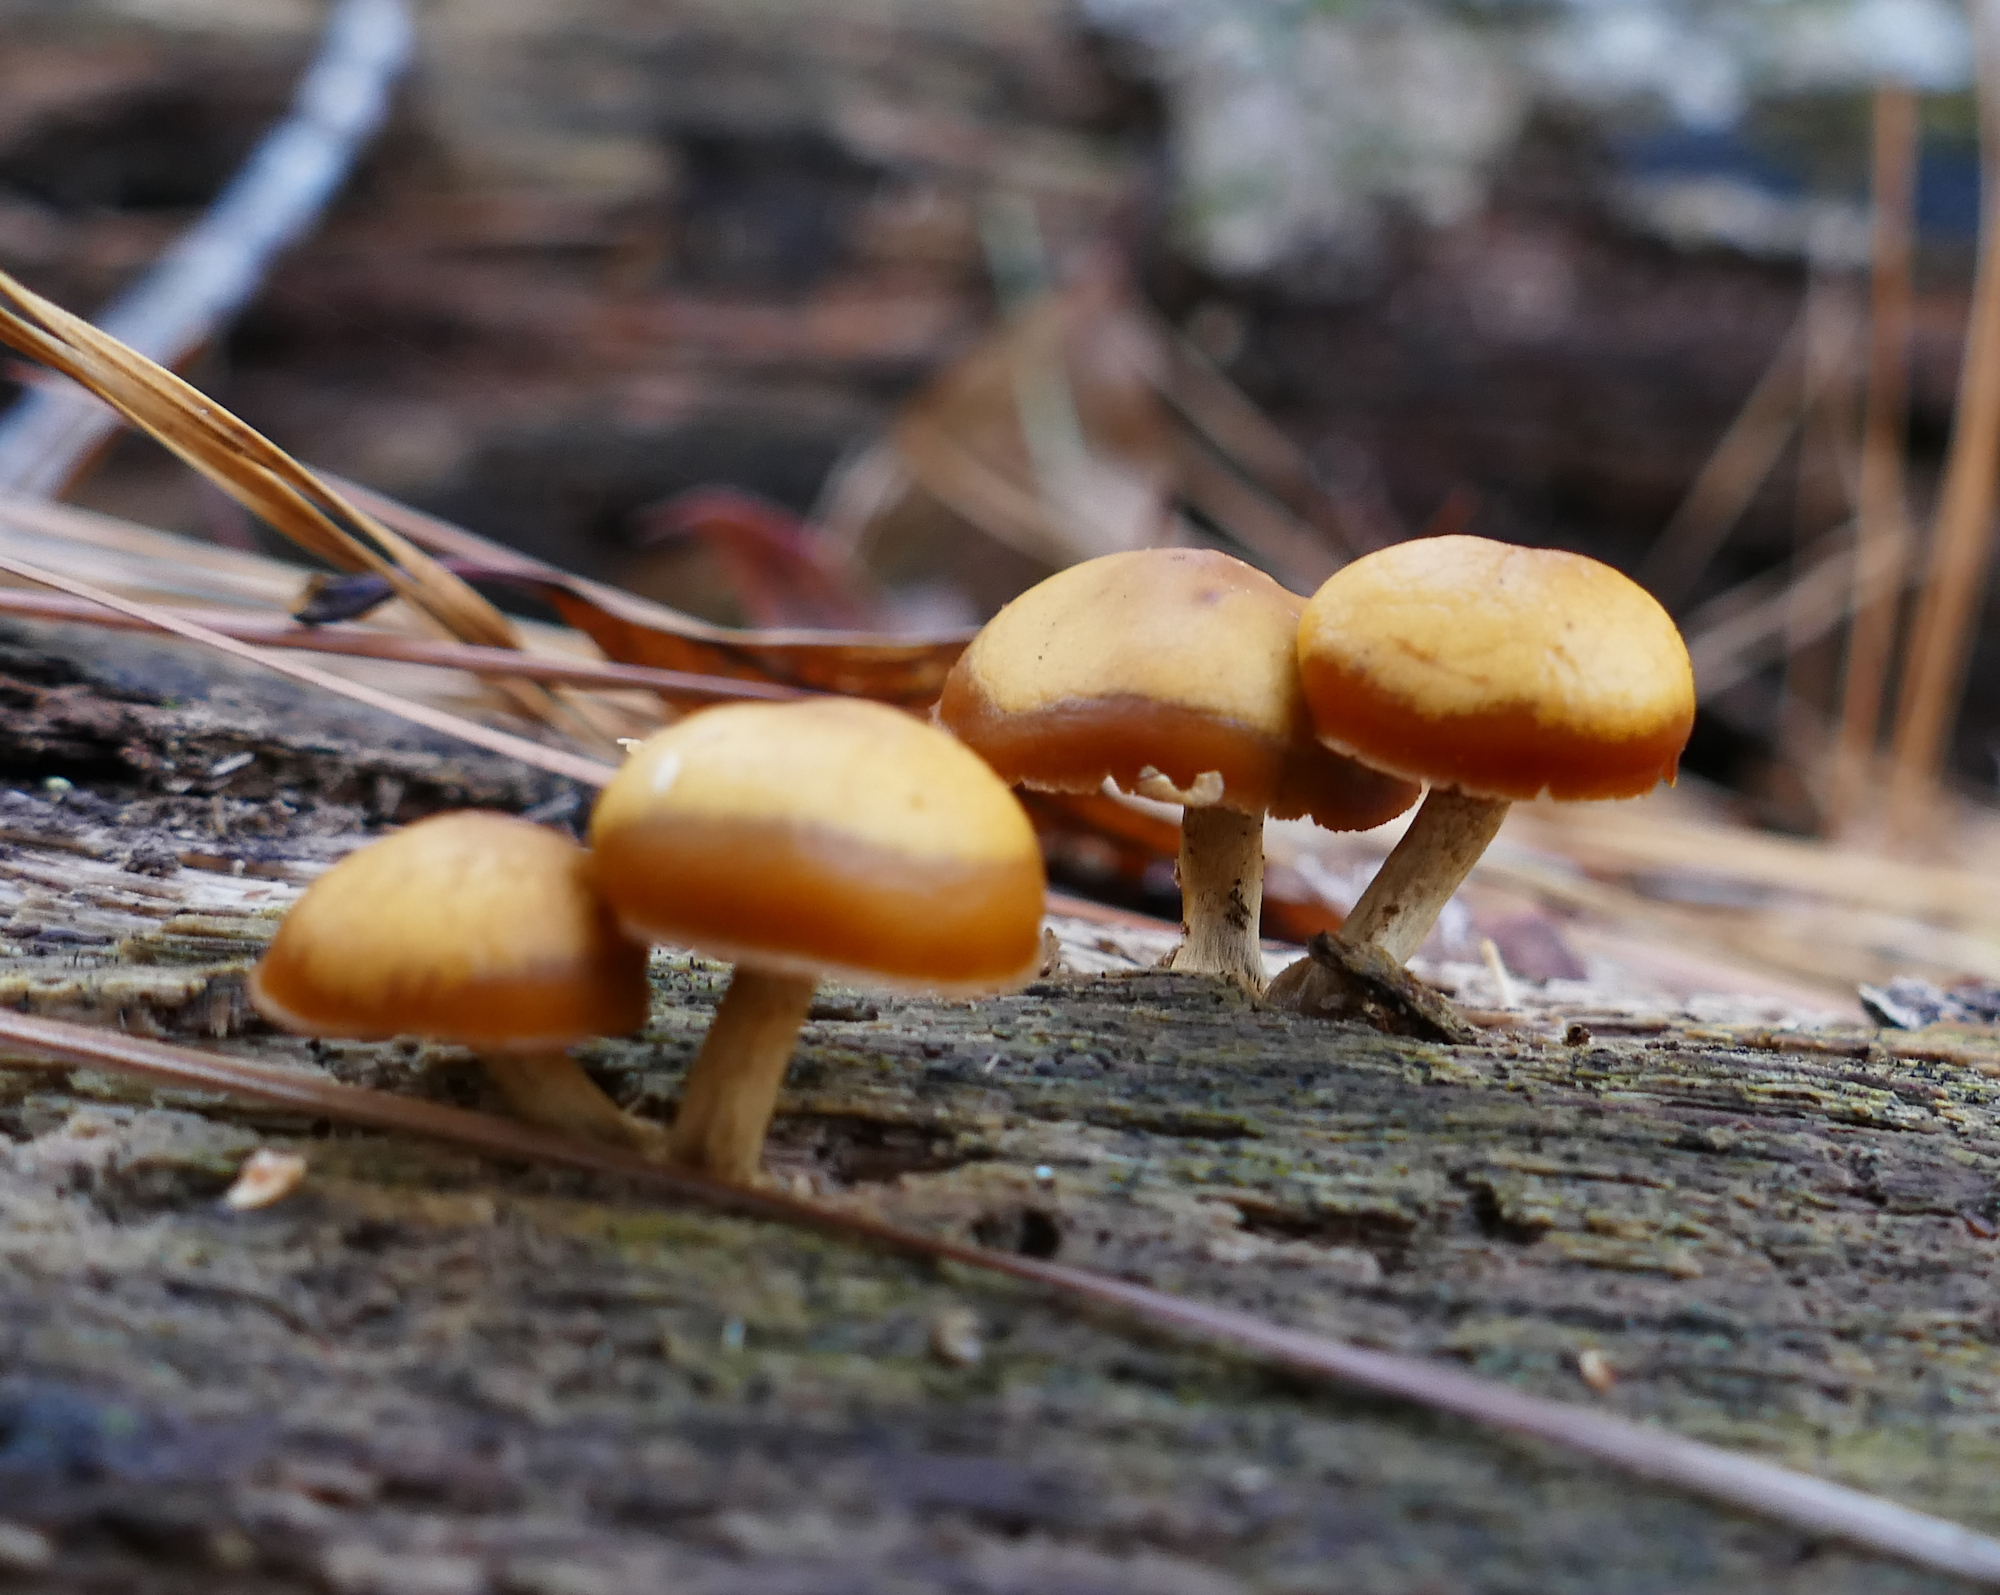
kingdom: Fungi
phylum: Basidiomycota
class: Agaricomycetes
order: Agaricales
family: Hymenogastraceae
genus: Galerina
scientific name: Galerina marginata
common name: Funeral bell
